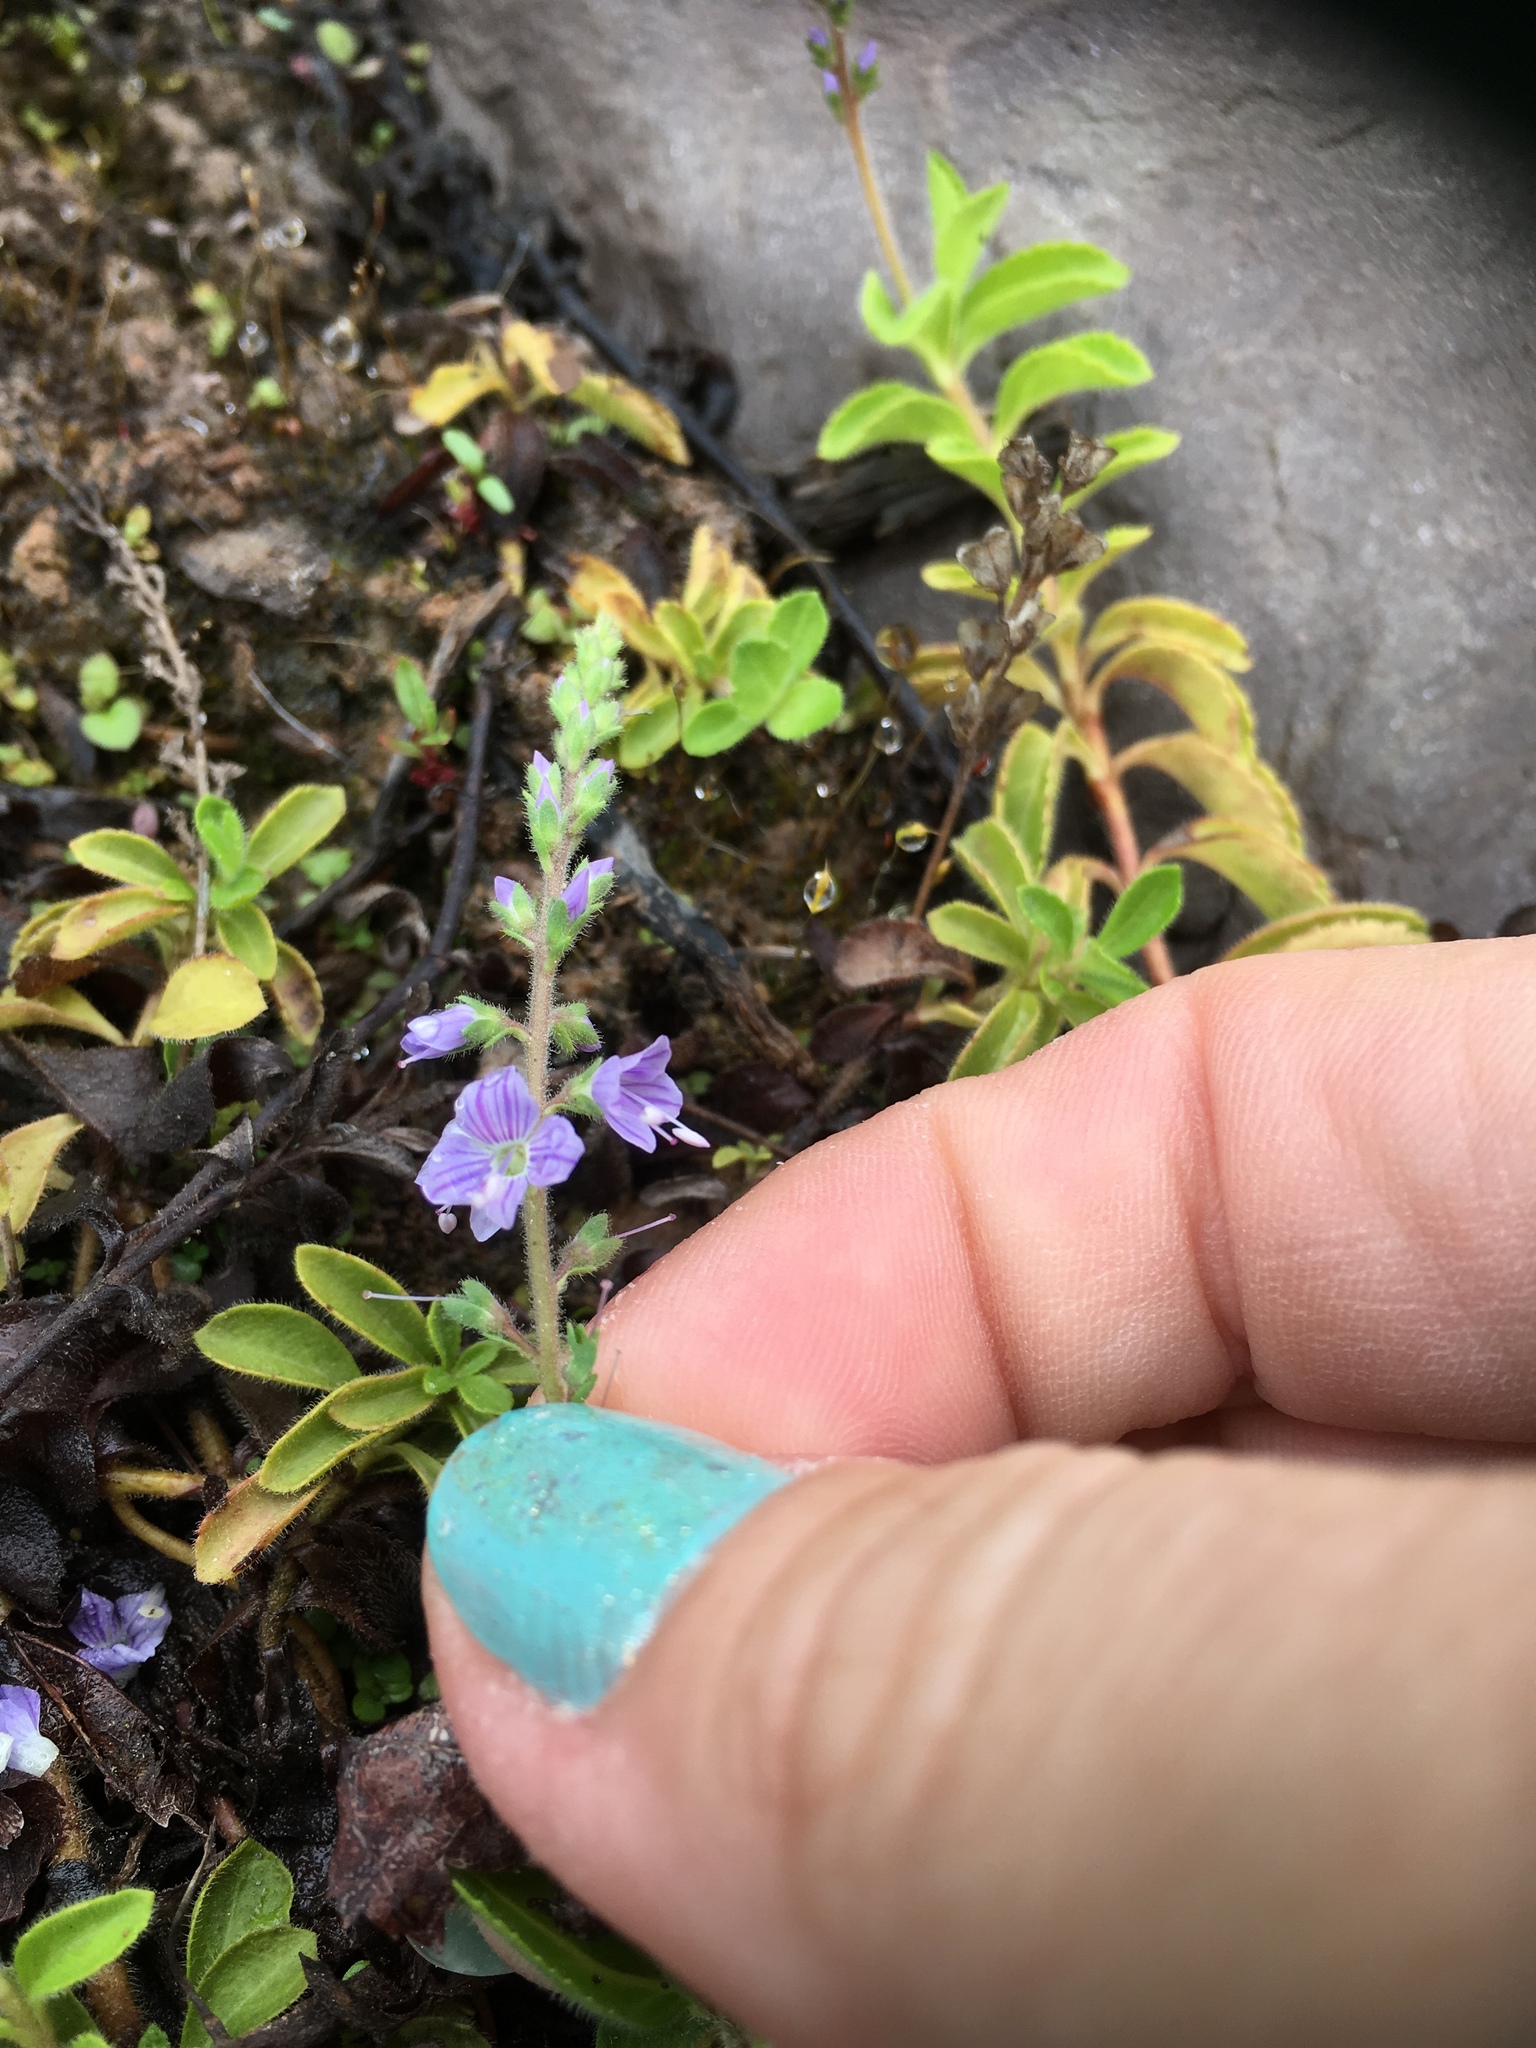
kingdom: Plantae
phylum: Tracheophyta
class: Magnoliopsida
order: Lamiales
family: Plantaginaceae
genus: Veronica
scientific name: Veronica officinalis
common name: Common speedwell
